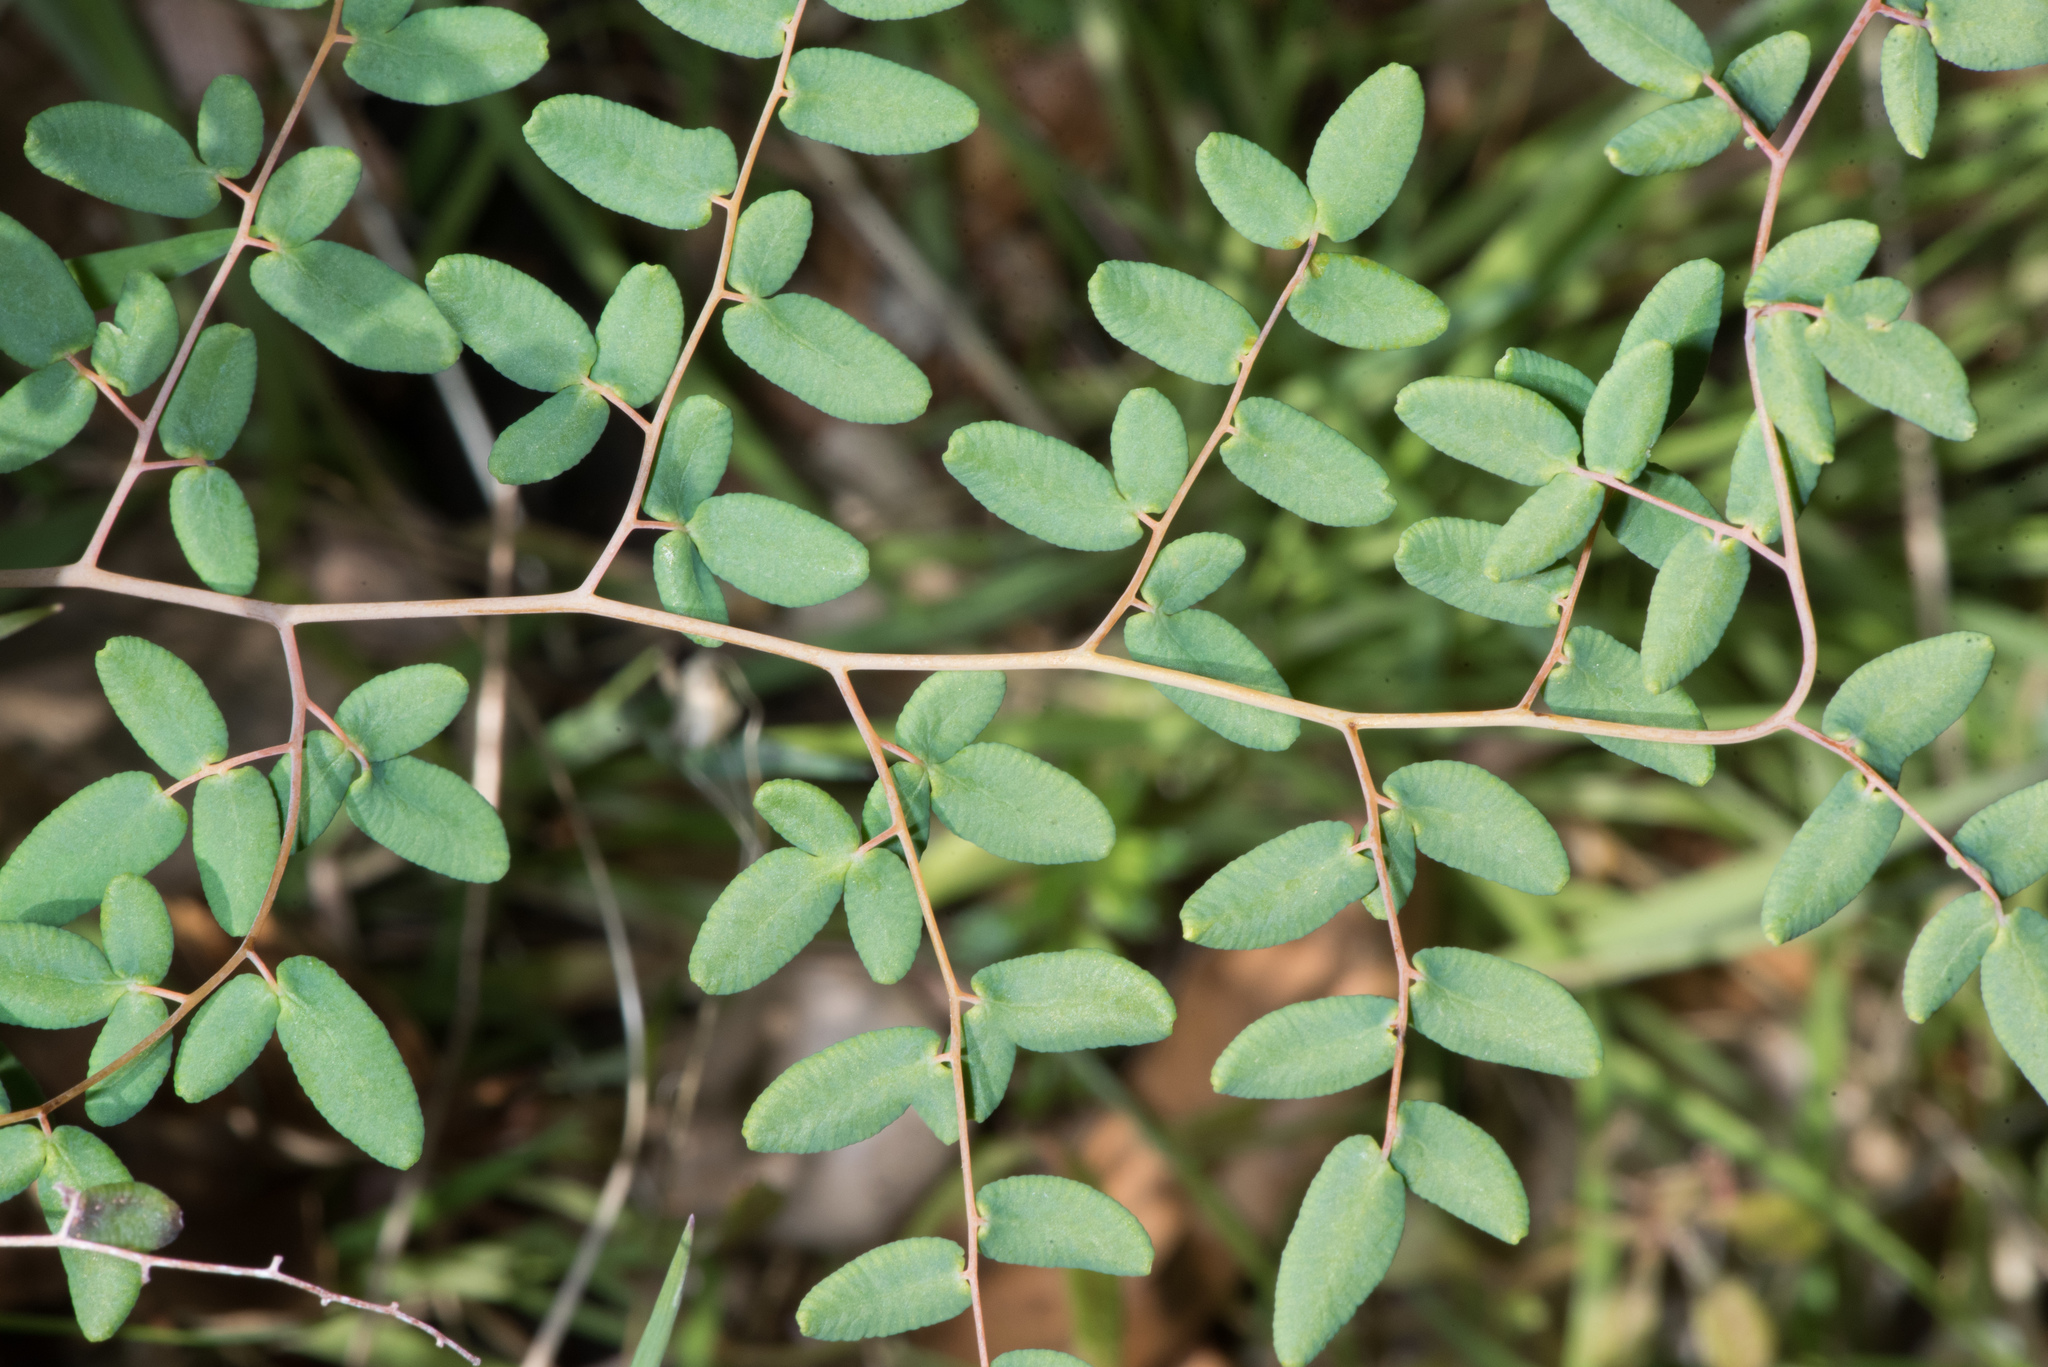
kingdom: Plantae
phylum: Tracheophyta
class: Polypodiopsida
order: Polypodiales
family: Pteridaceae
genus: Pellaea
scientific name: Pellaea andromedifolia
